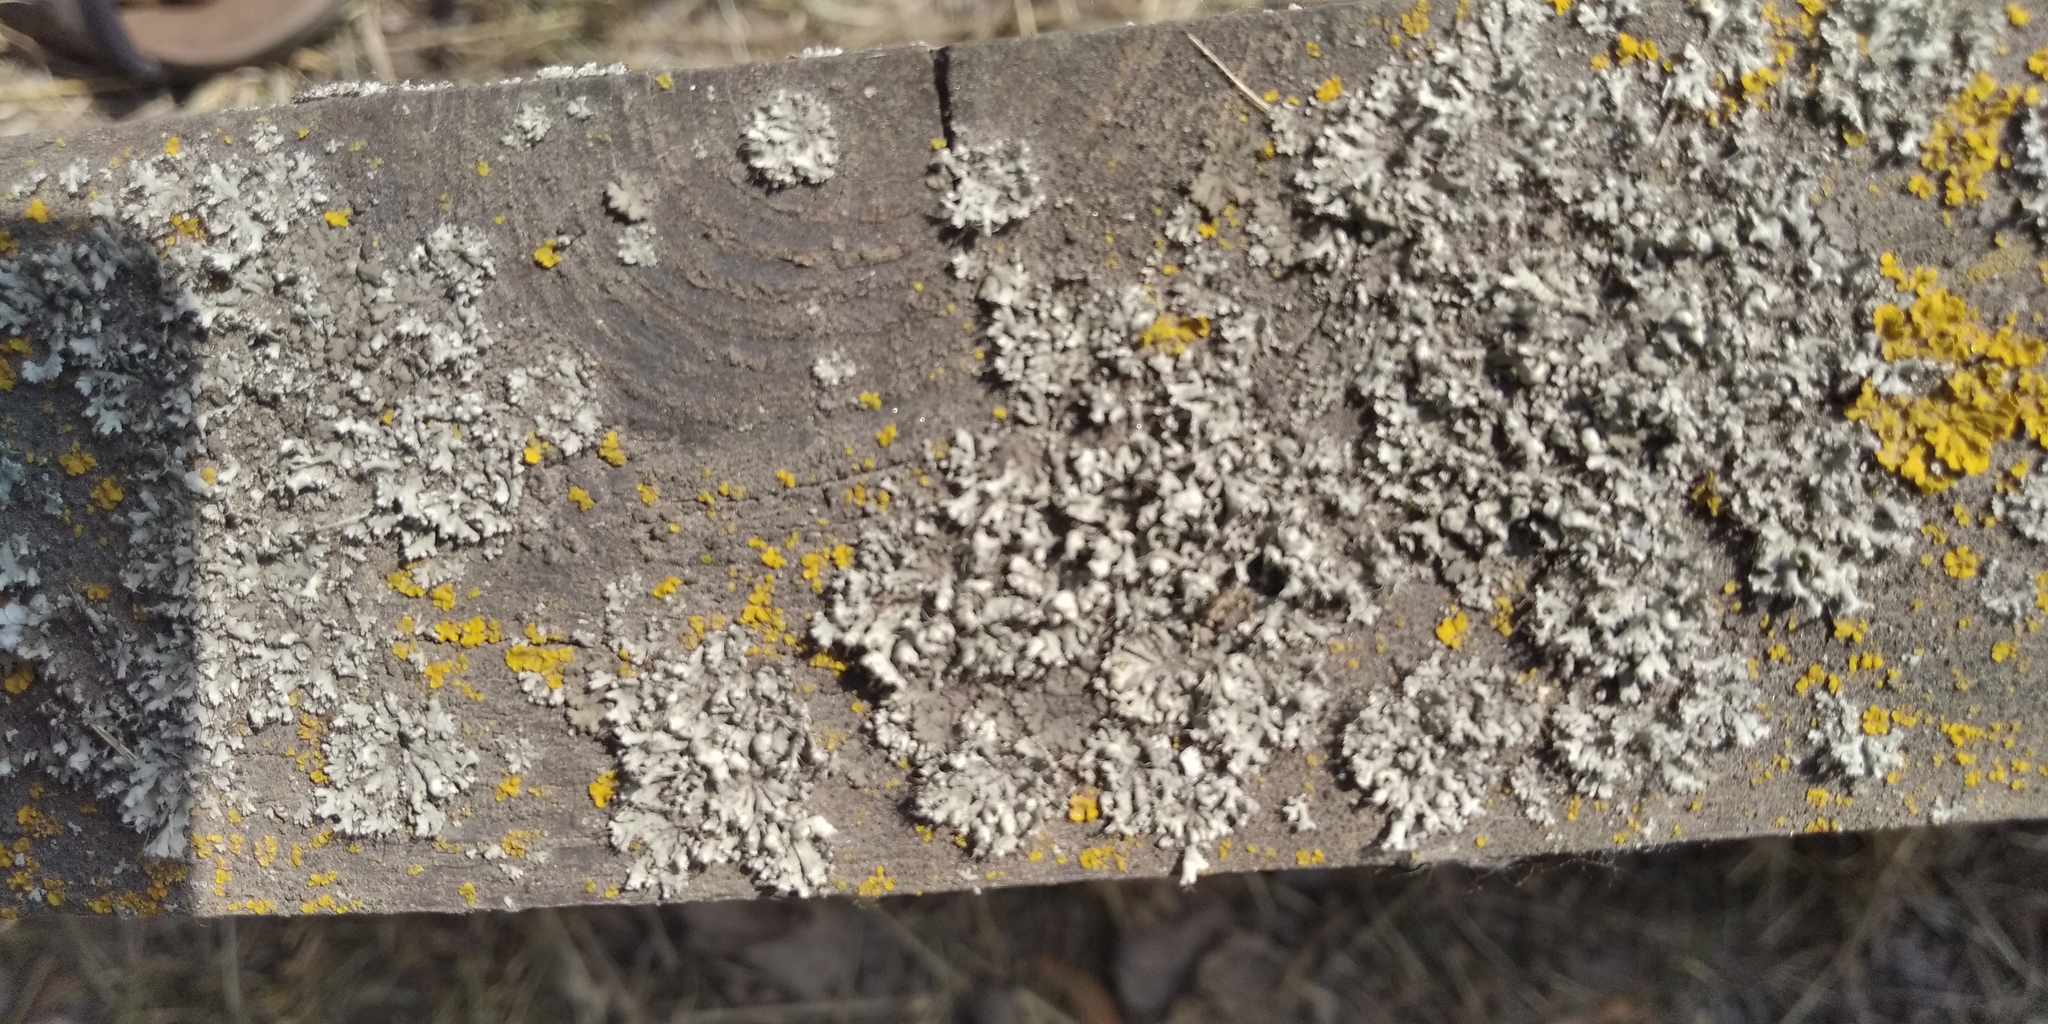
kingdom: Fungi
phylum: Ascomycota
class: Lecanoromycetes
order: Caliciales
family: Physciaceae
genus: Physcia
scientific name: Physcia adscendens
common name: Hooded rosette lichen
